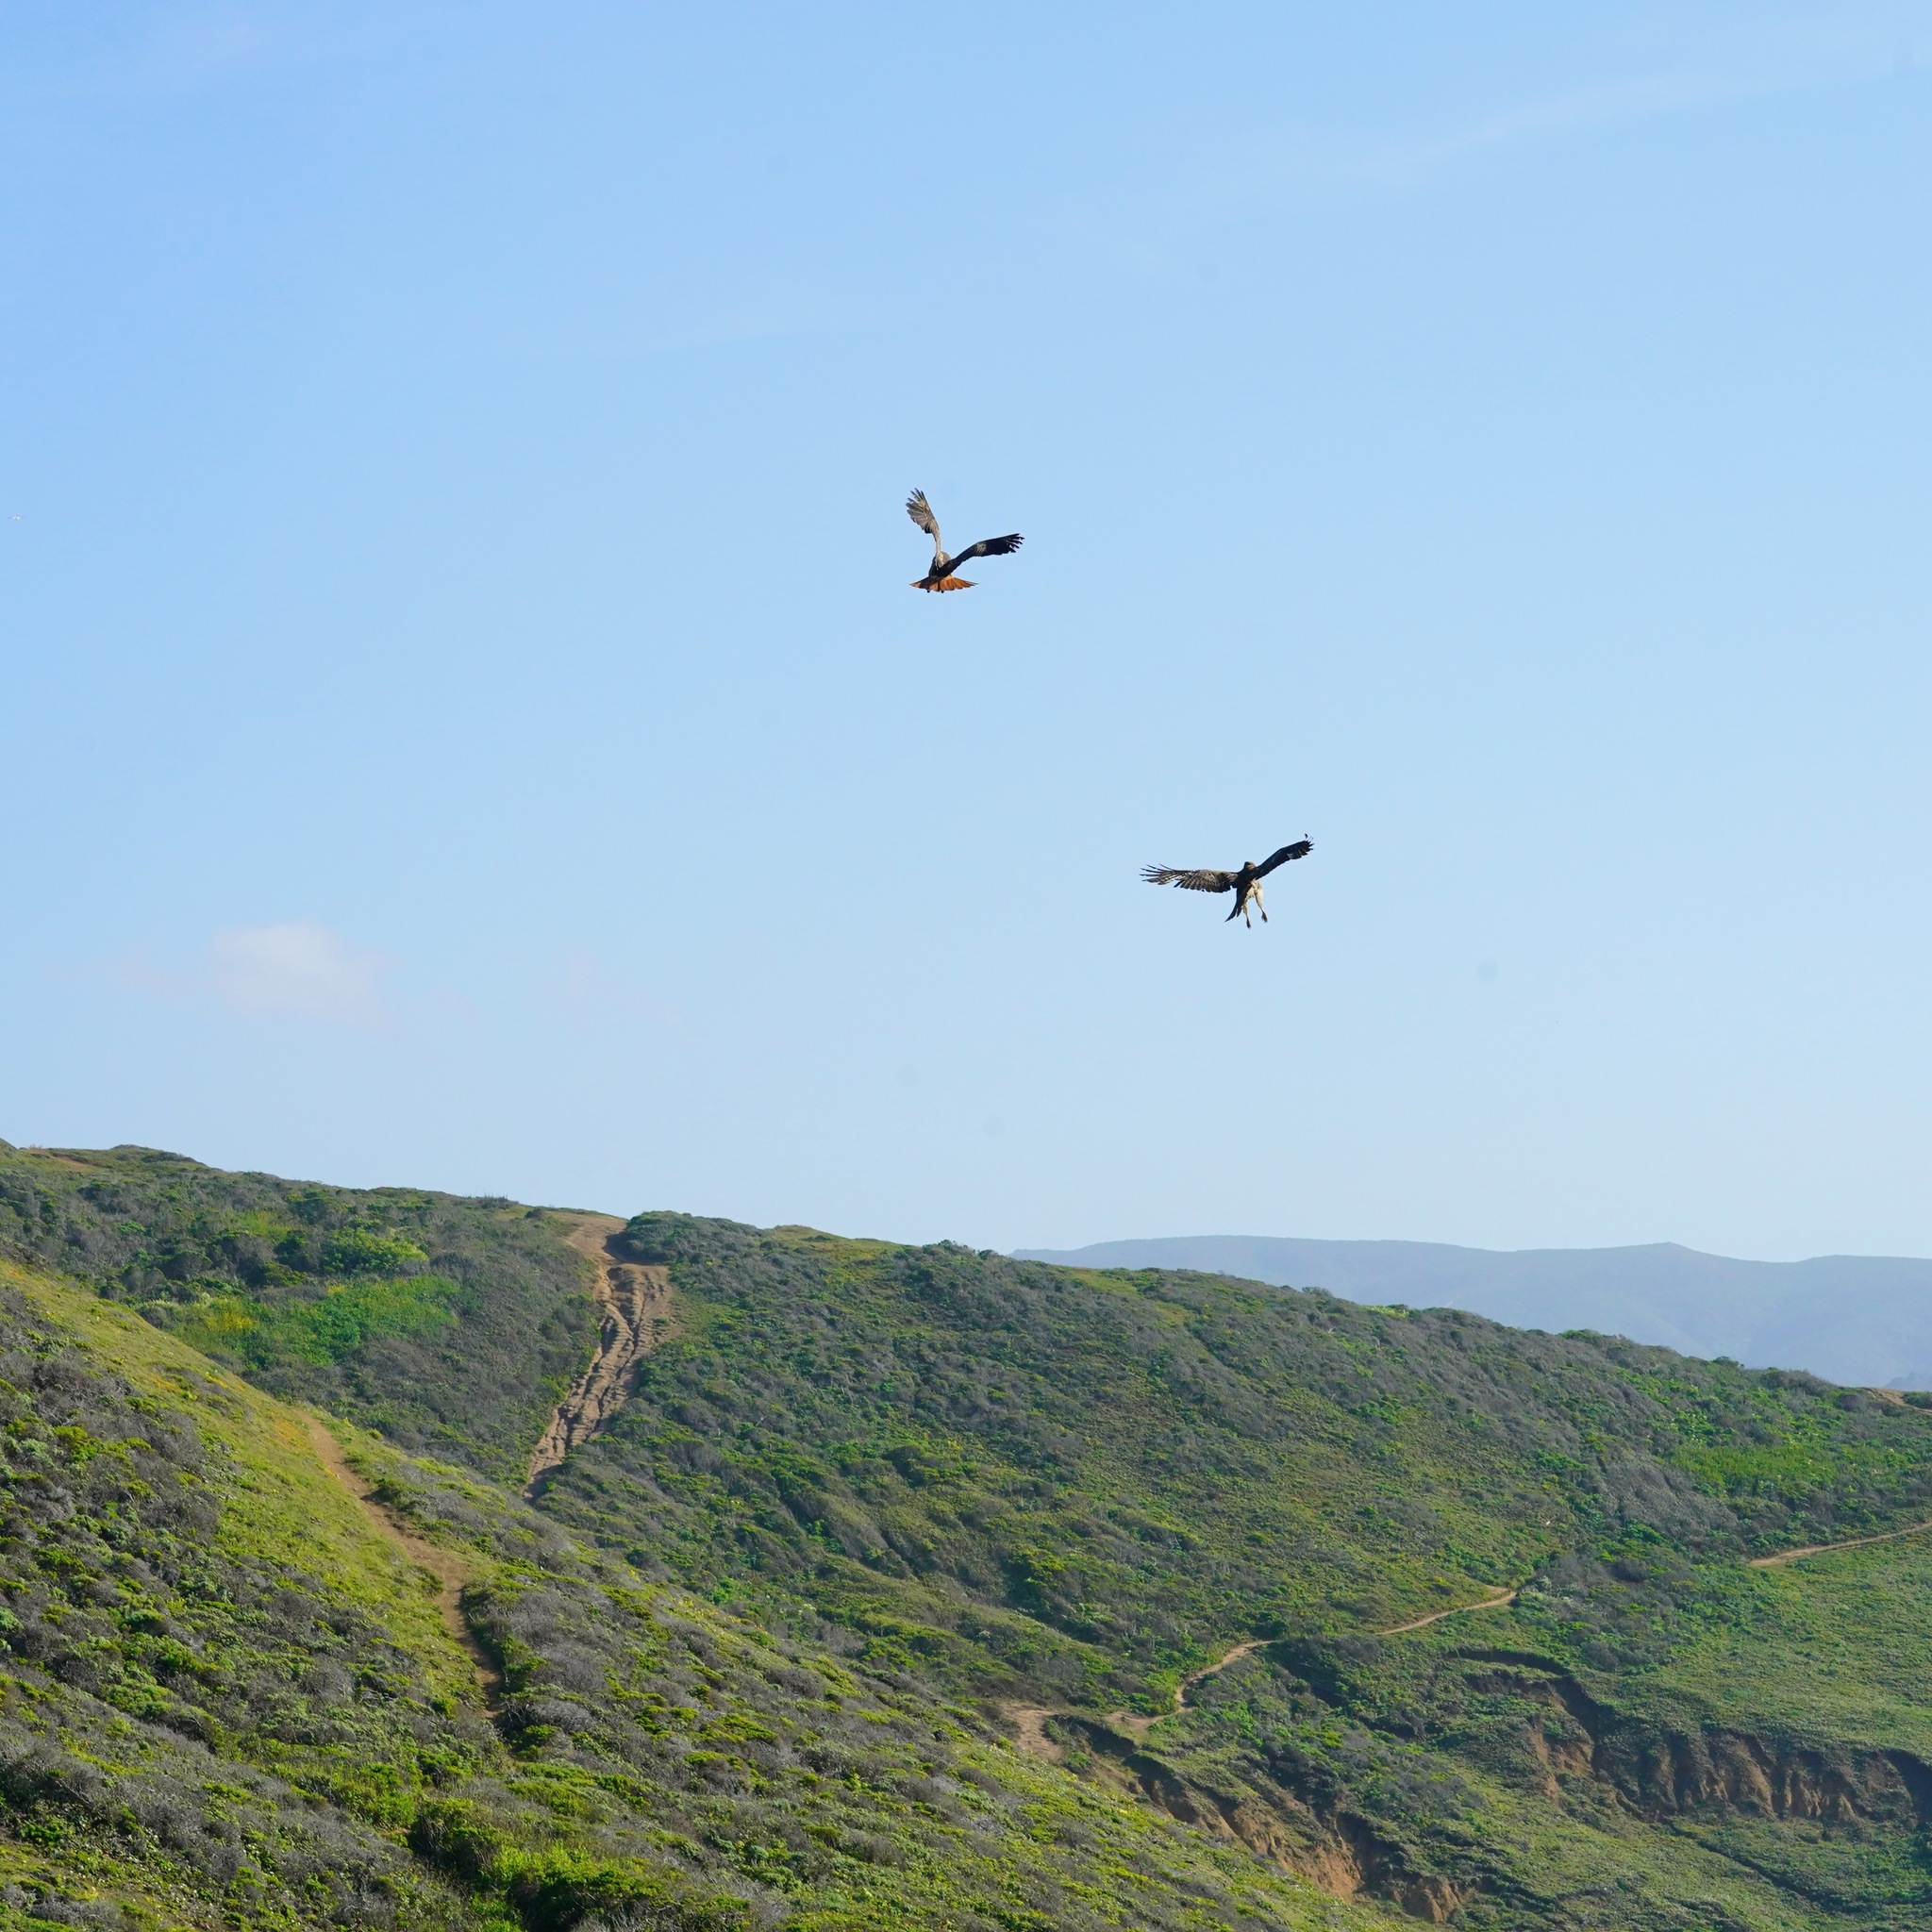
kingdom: Animalia
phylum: Chordata
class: Aves
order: Accipitriformes
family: Accipitridae
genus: Buteo
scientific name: Buteo jamaicensis
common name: Red-tailed hawk
